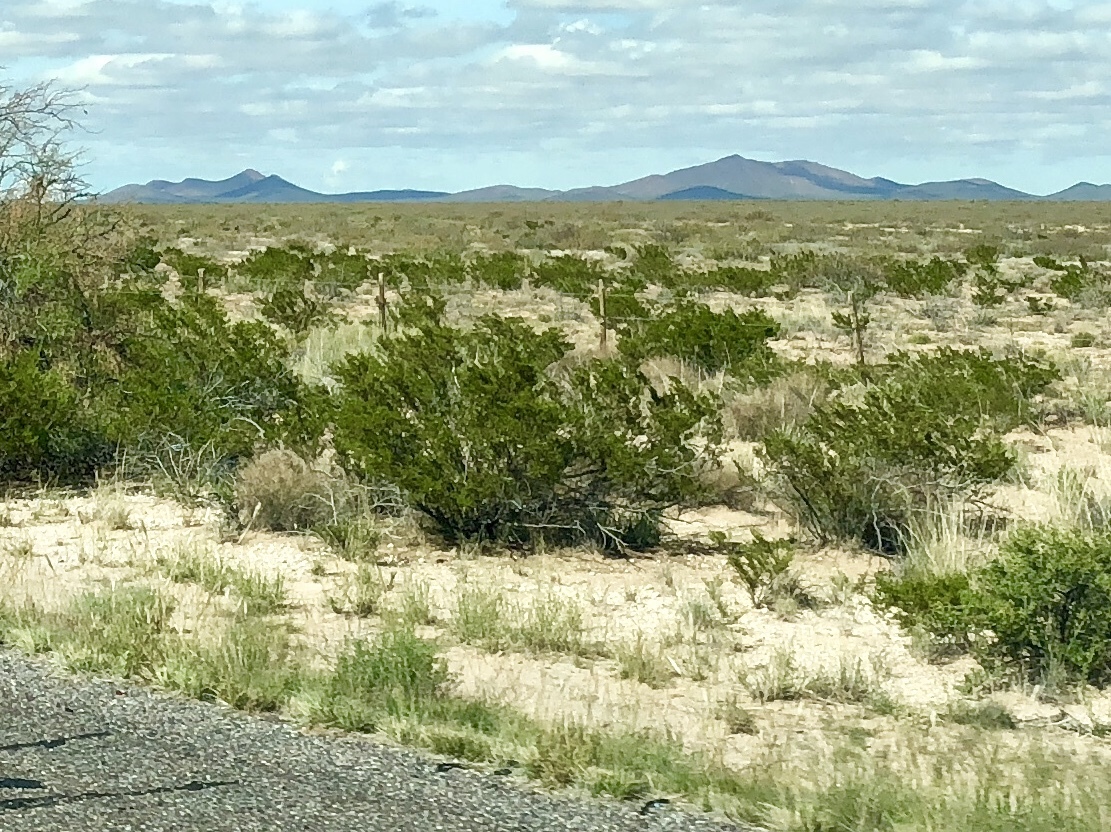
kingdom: Plantae
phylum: Tracheophyta
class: Magnoliopsida
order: Zygophyllales
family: Zygophyllaceae
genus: Larrea
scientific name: Larrea tridentata
